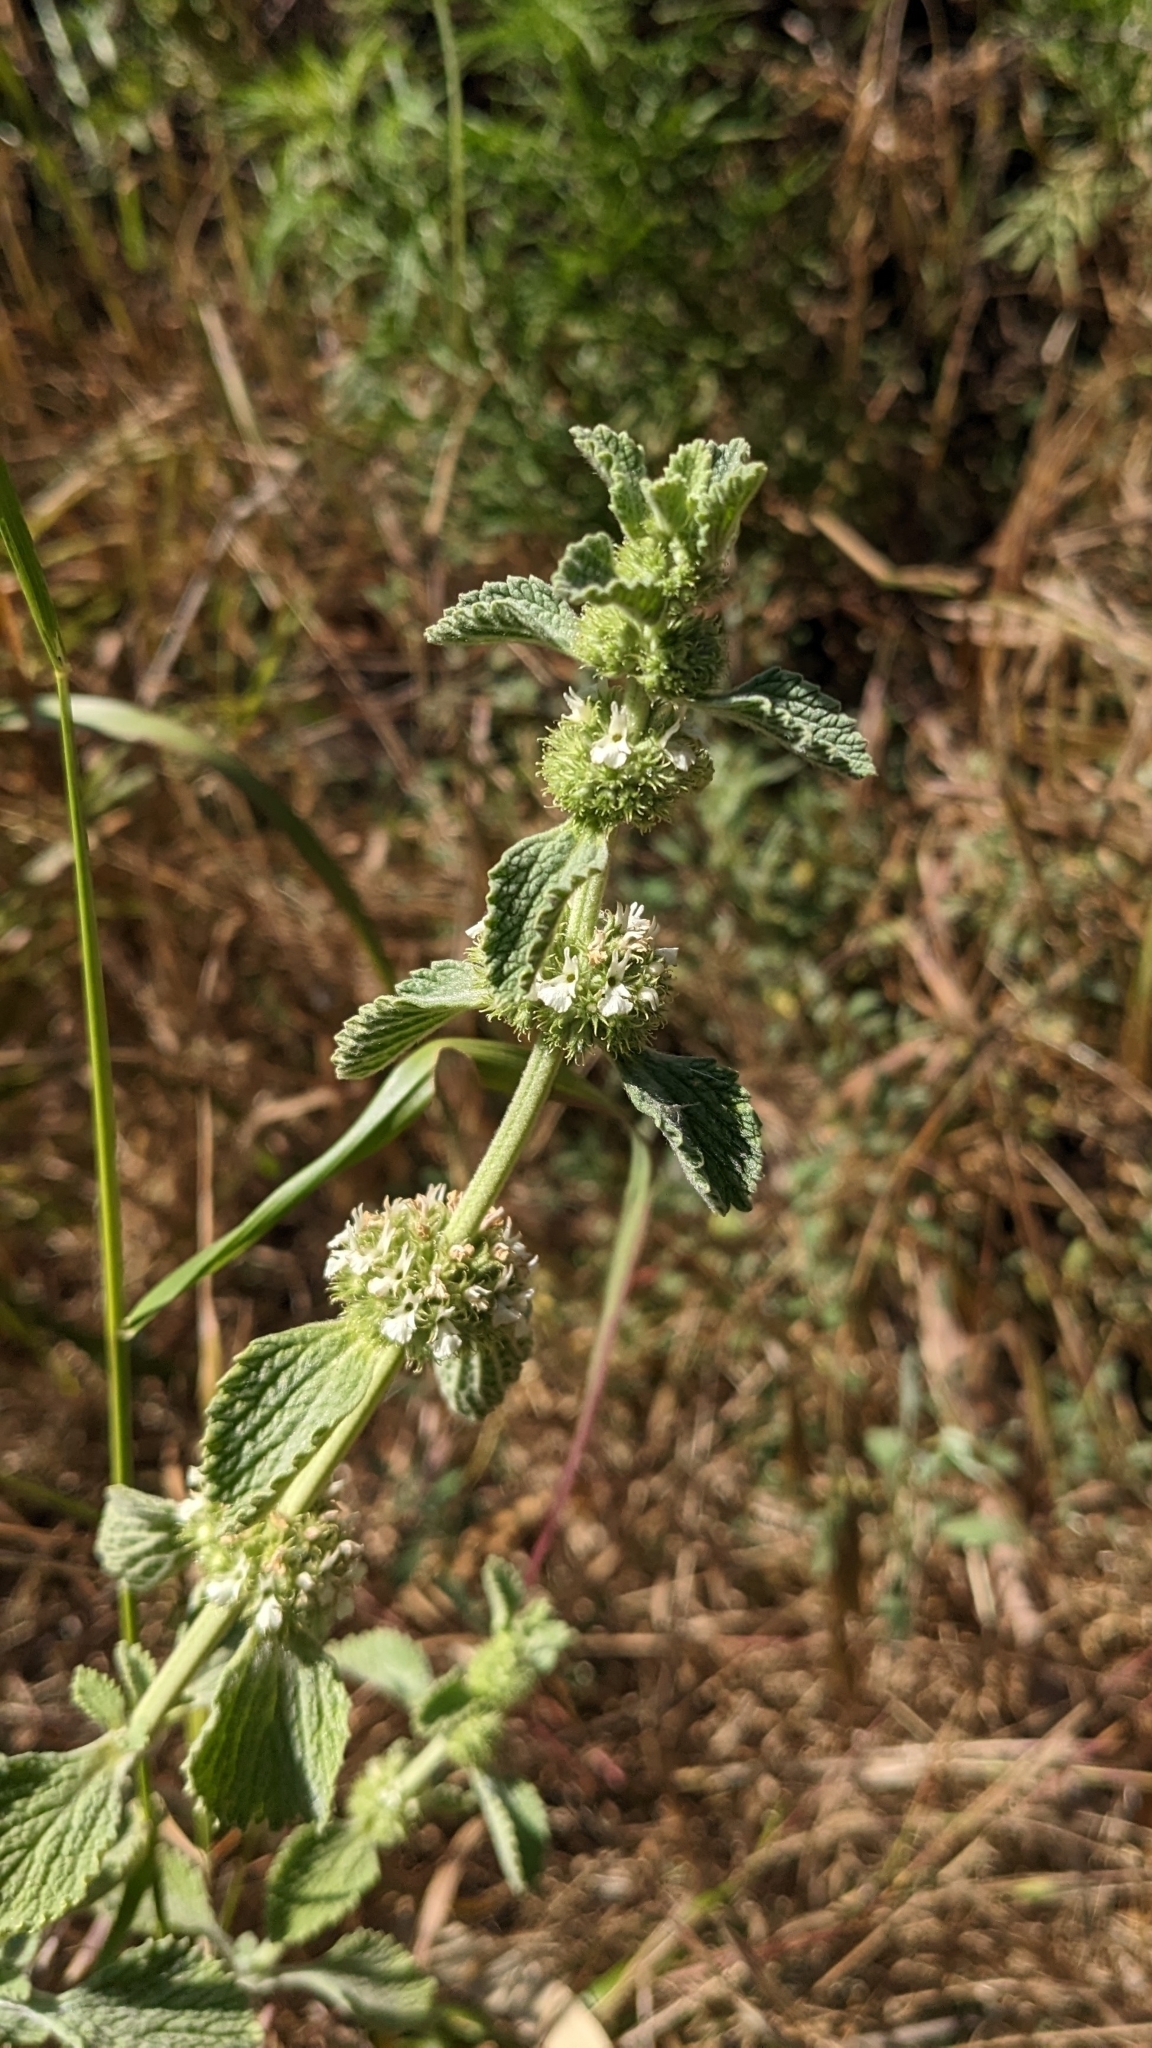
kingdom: Plantae
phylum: Tracheophyta
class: Magnoliopsida
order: Lamiales
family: Lamiaceae
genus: Marrubium
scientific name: Marrubium vulgare
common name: Horehound
